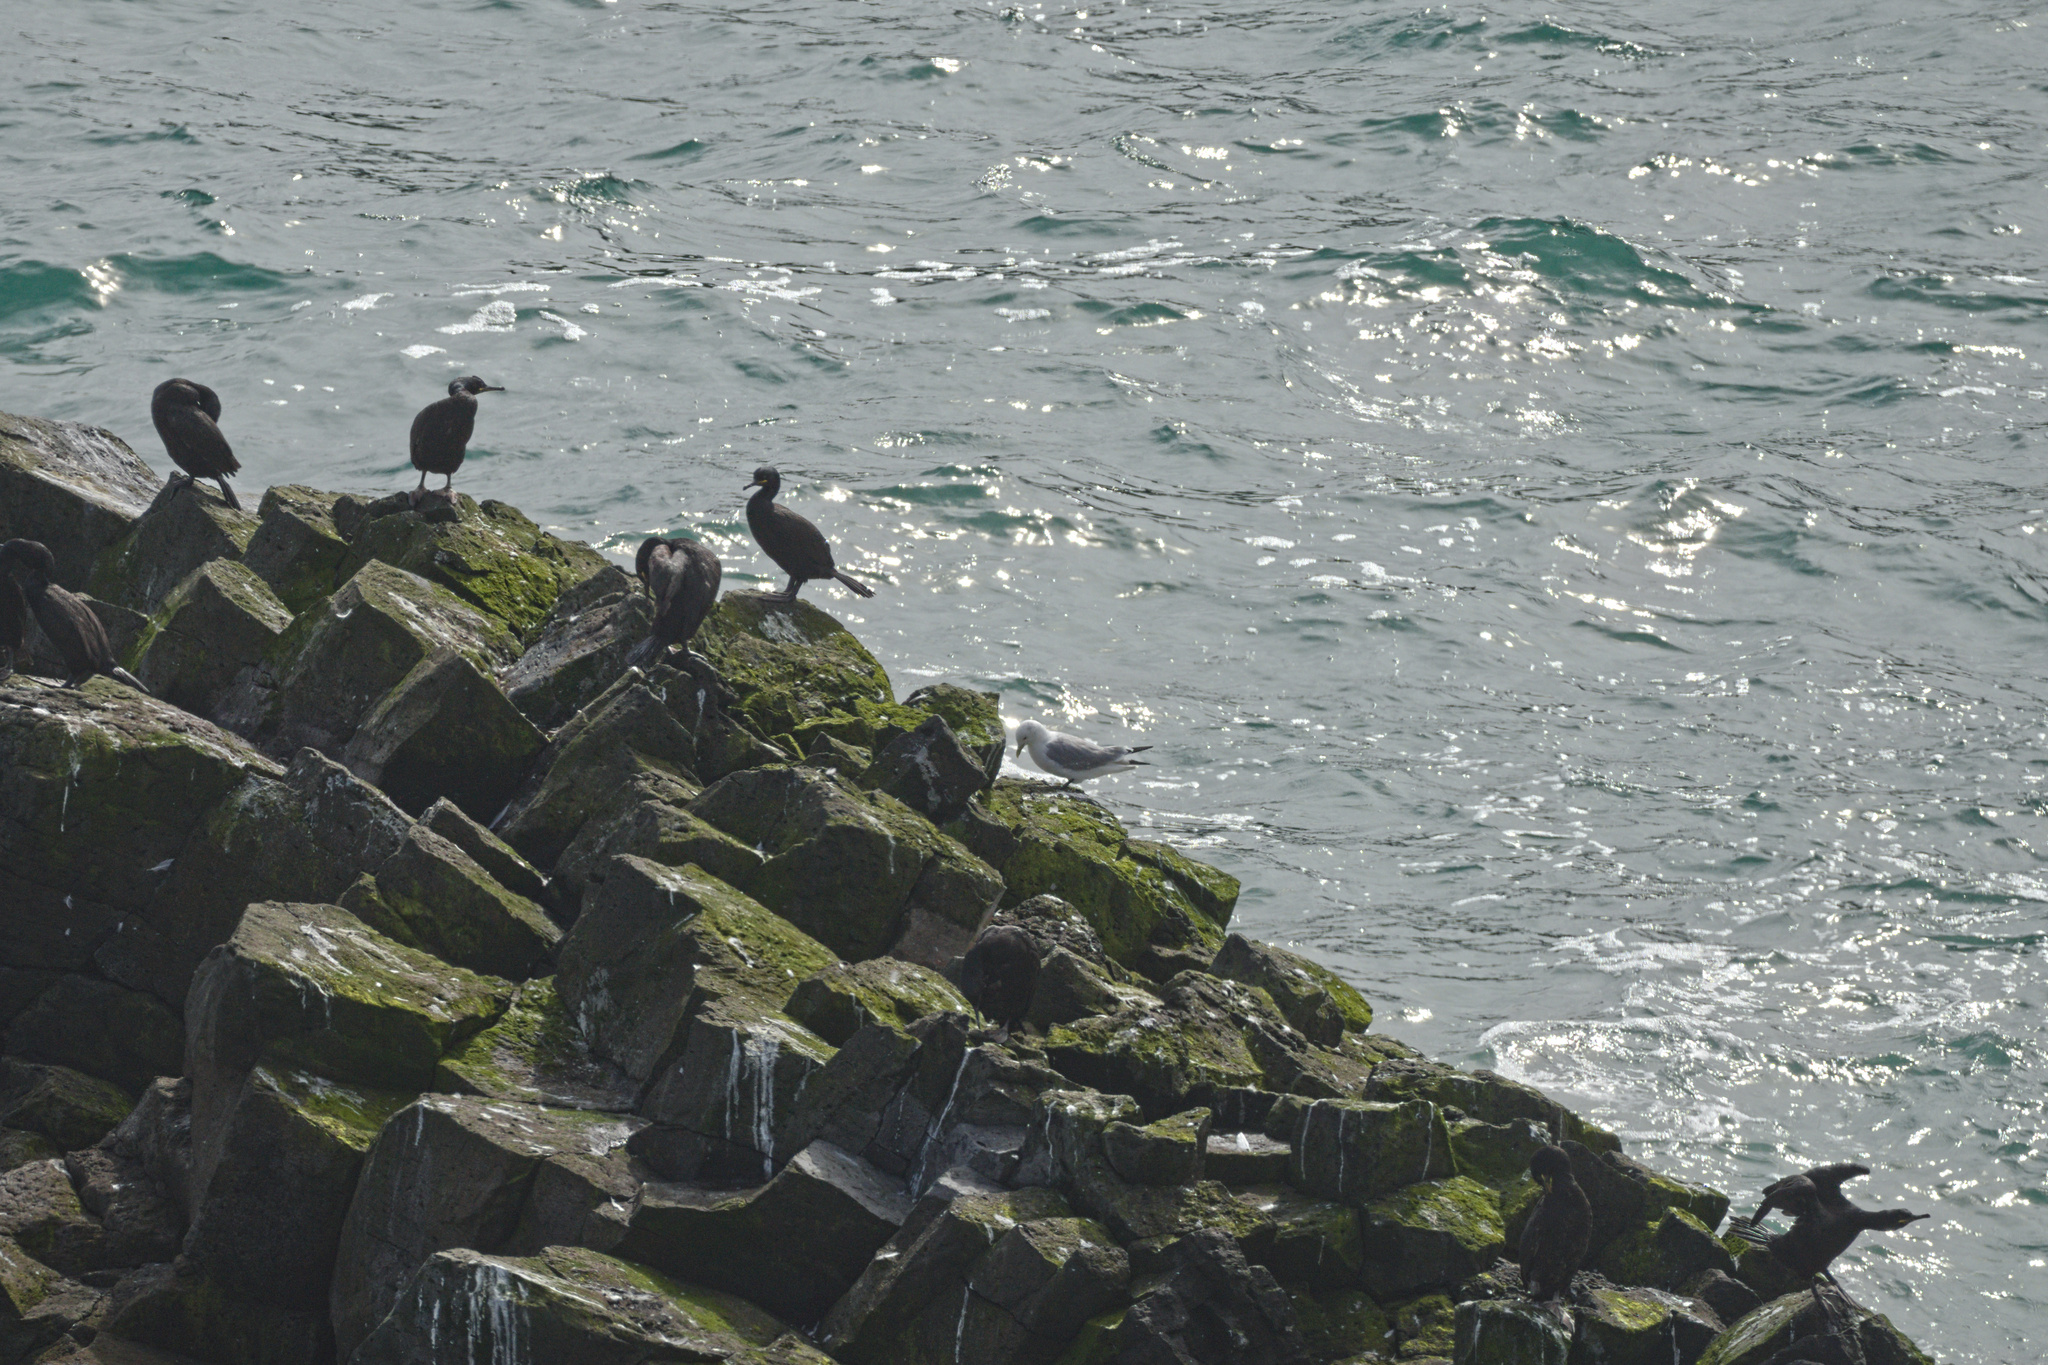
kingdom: Animalia
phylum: Chordata
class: Aves
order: Charadriiformes
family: Laridae
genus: Rissa
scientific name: Rissa tridactyla
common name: Black-legged kittiwake
